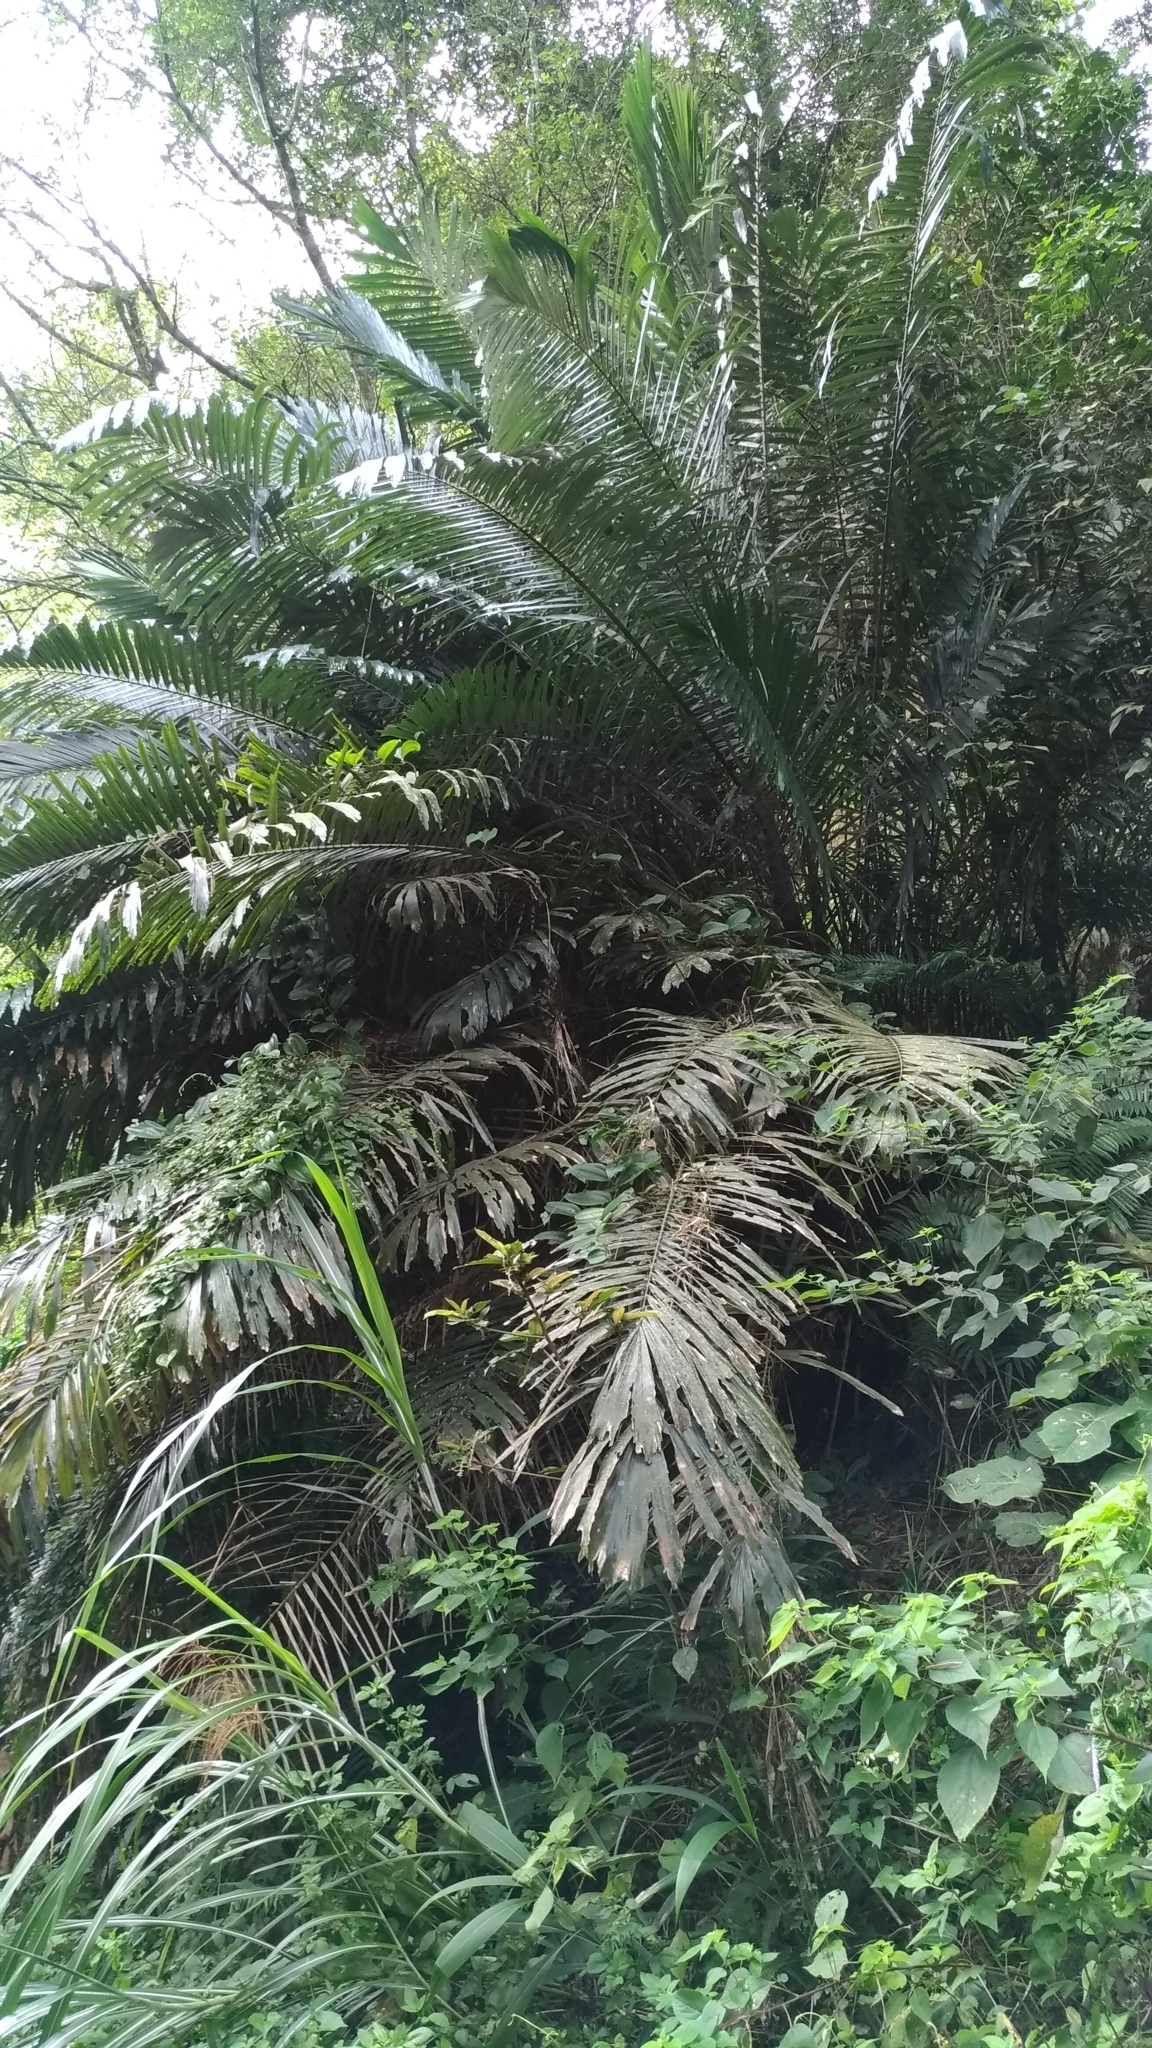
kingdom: Plantae
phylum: Tracheophyta
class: Liliopsida
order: Arecales
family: Arecaceae
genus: Arenga
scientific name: Arenga engleri
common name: Formosan sugar palm
